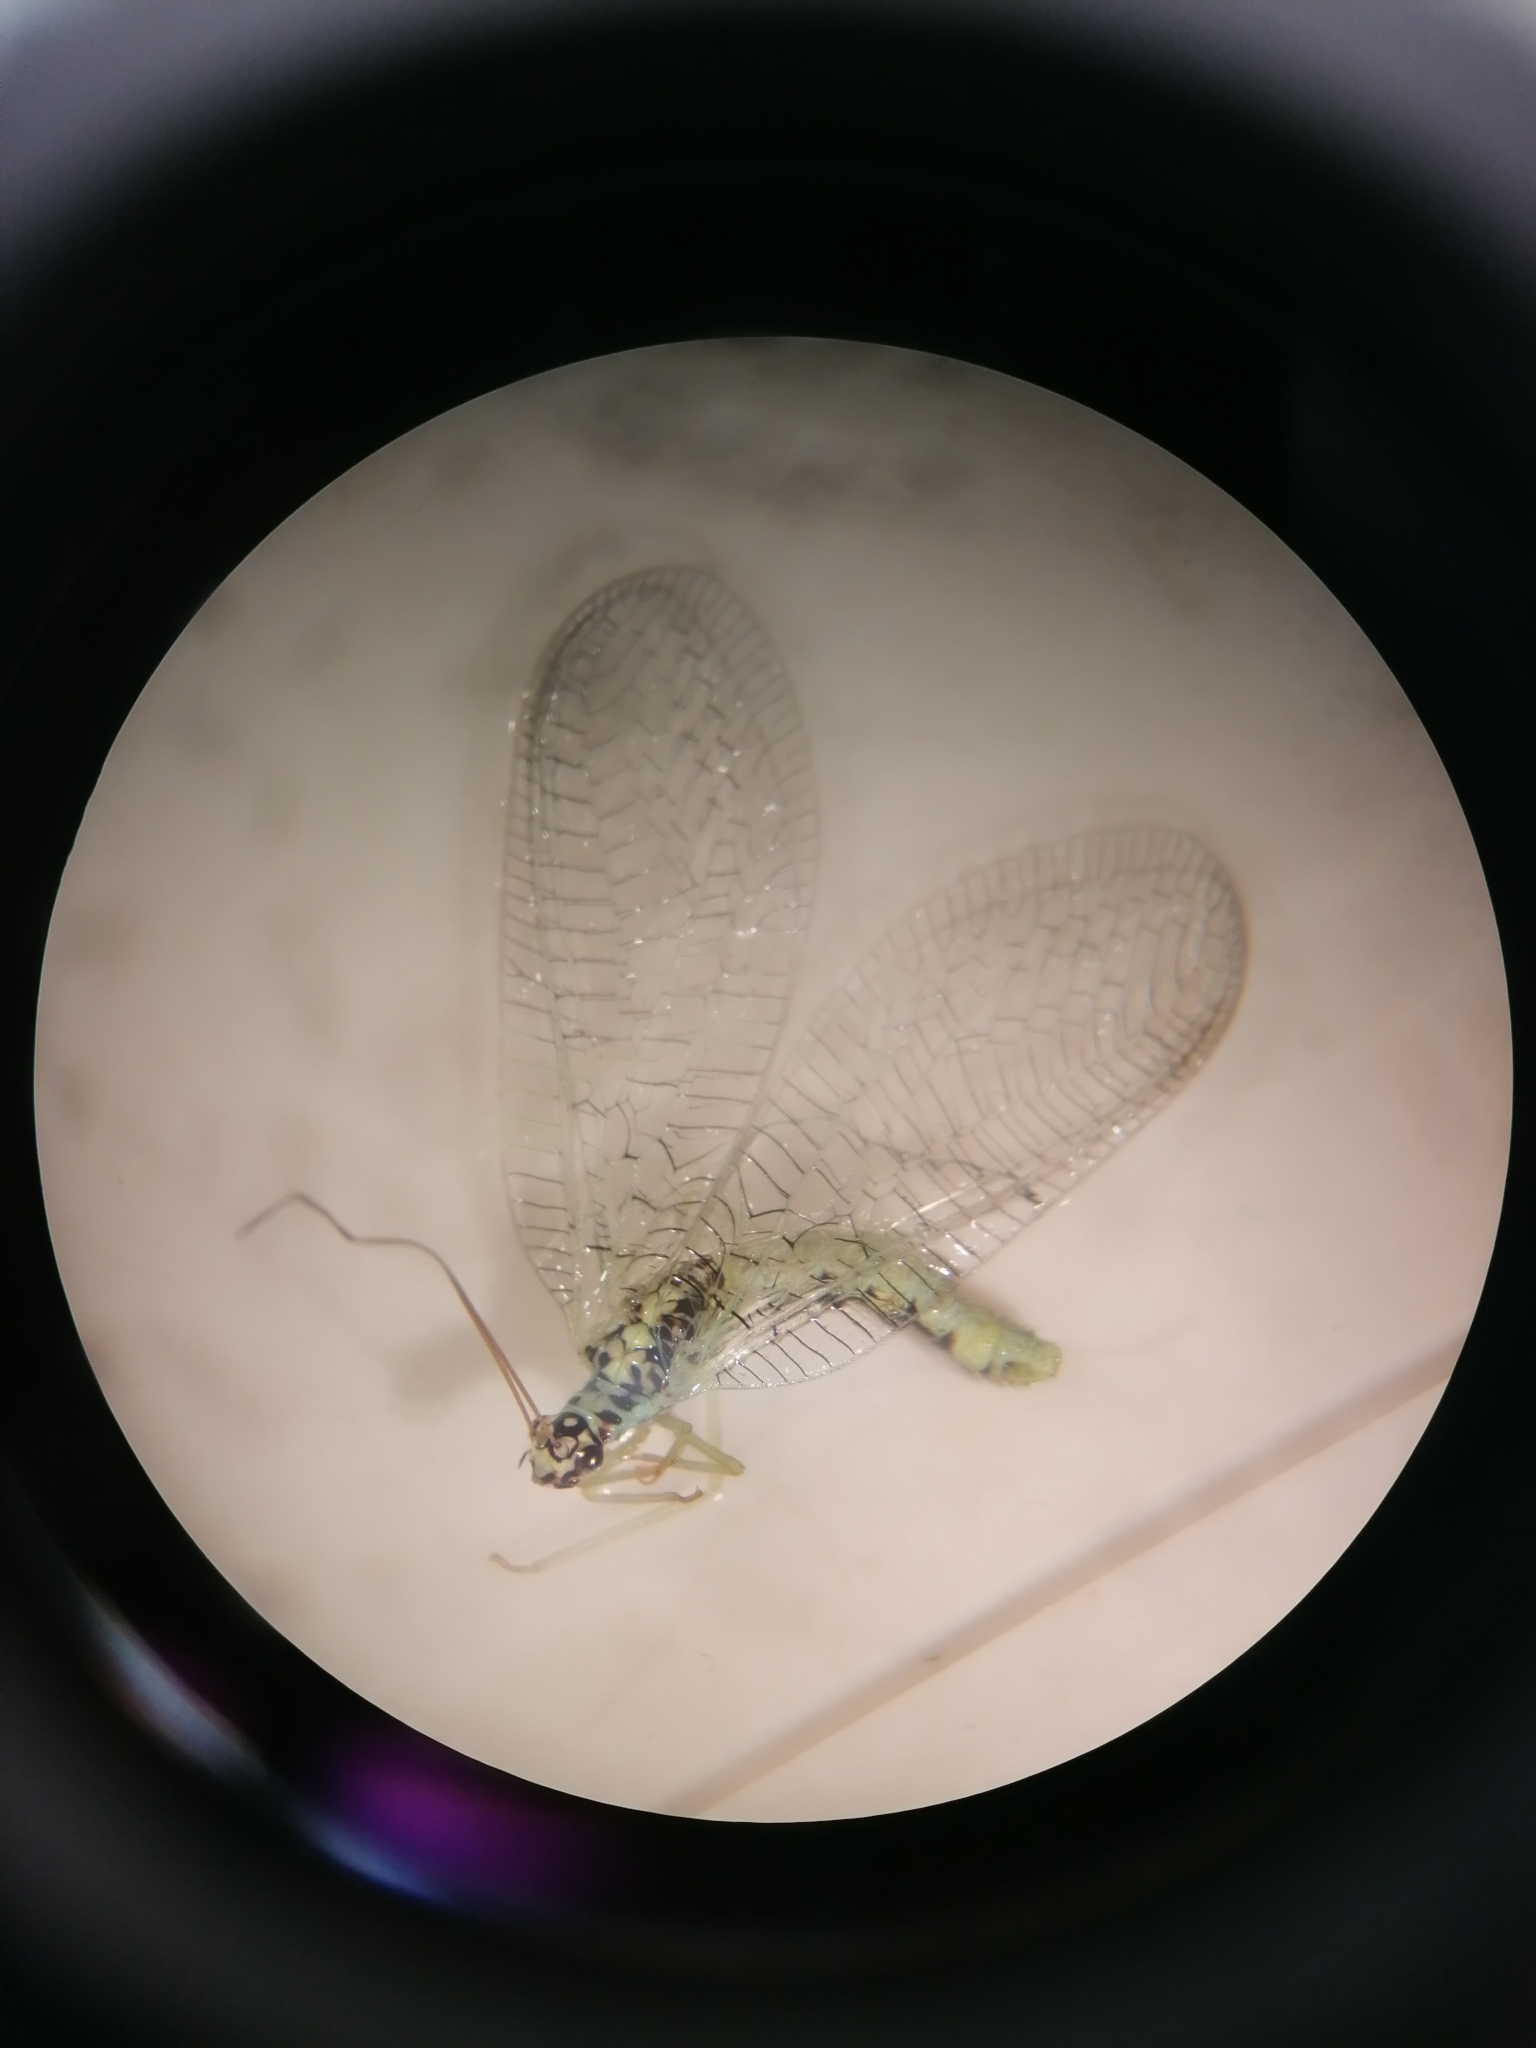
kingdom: Animalia
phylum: Arthropoda
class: Insecta
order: Neuroptera
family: Chrysopidae
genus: Chrysopa
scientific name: Chrysopa perla
